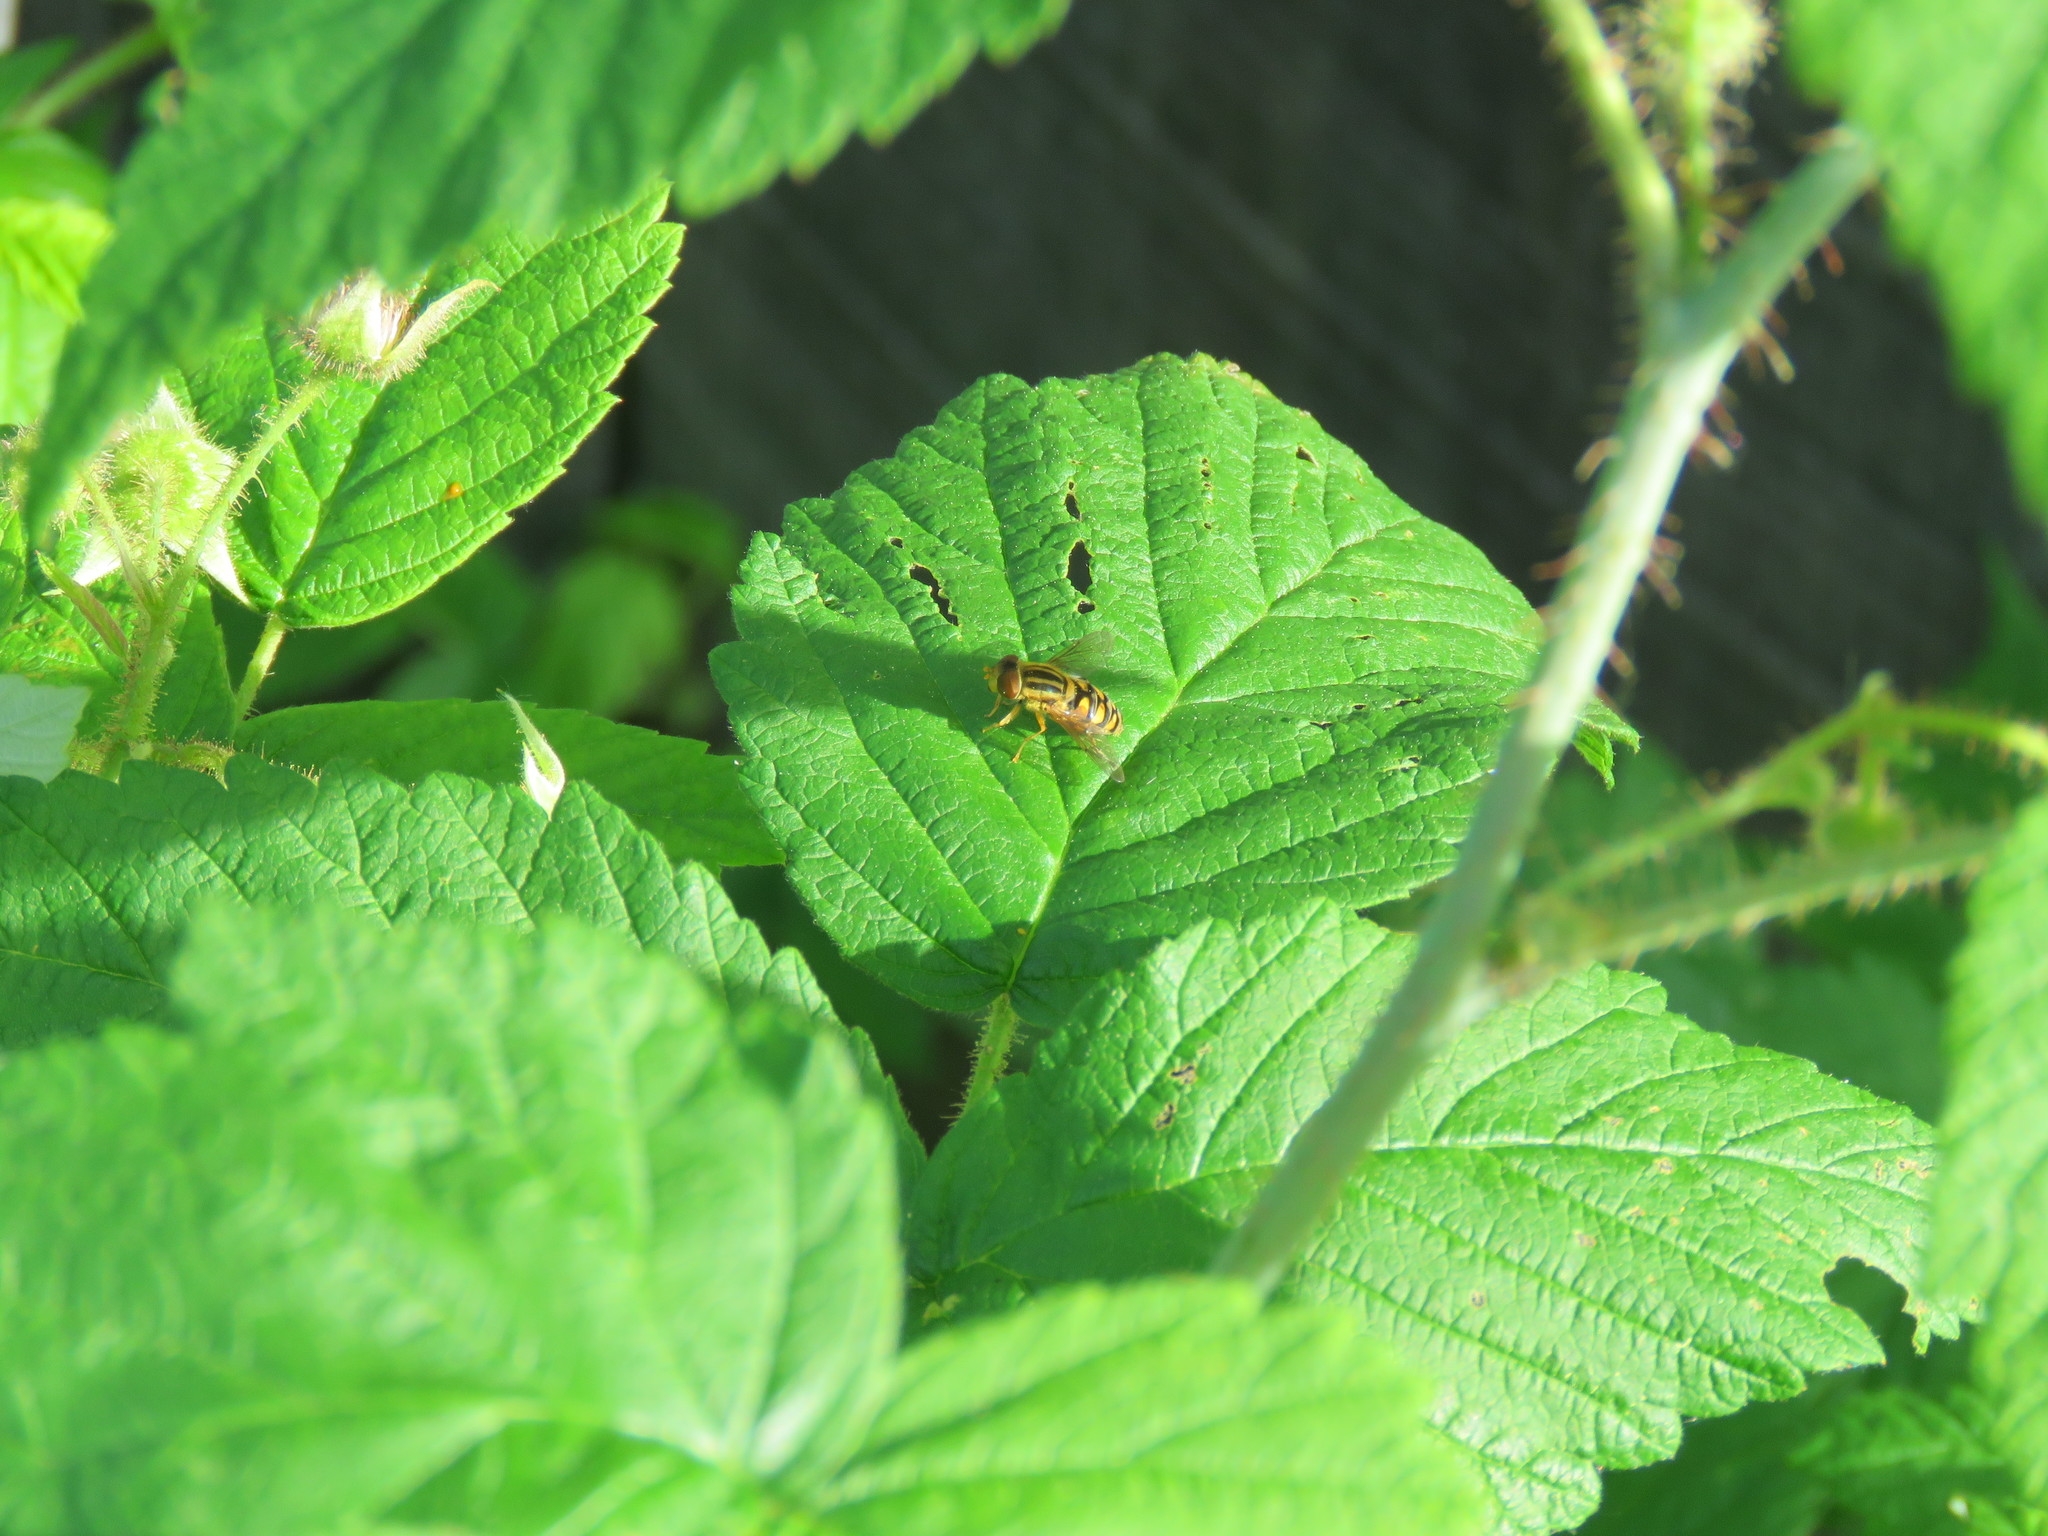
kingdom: Animalia
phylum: Arthropoda
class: Insecta
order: Diptera
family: Syrphidae
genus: Parhelophilus
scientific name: Parhelophilus laetus
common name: Common bog fly
